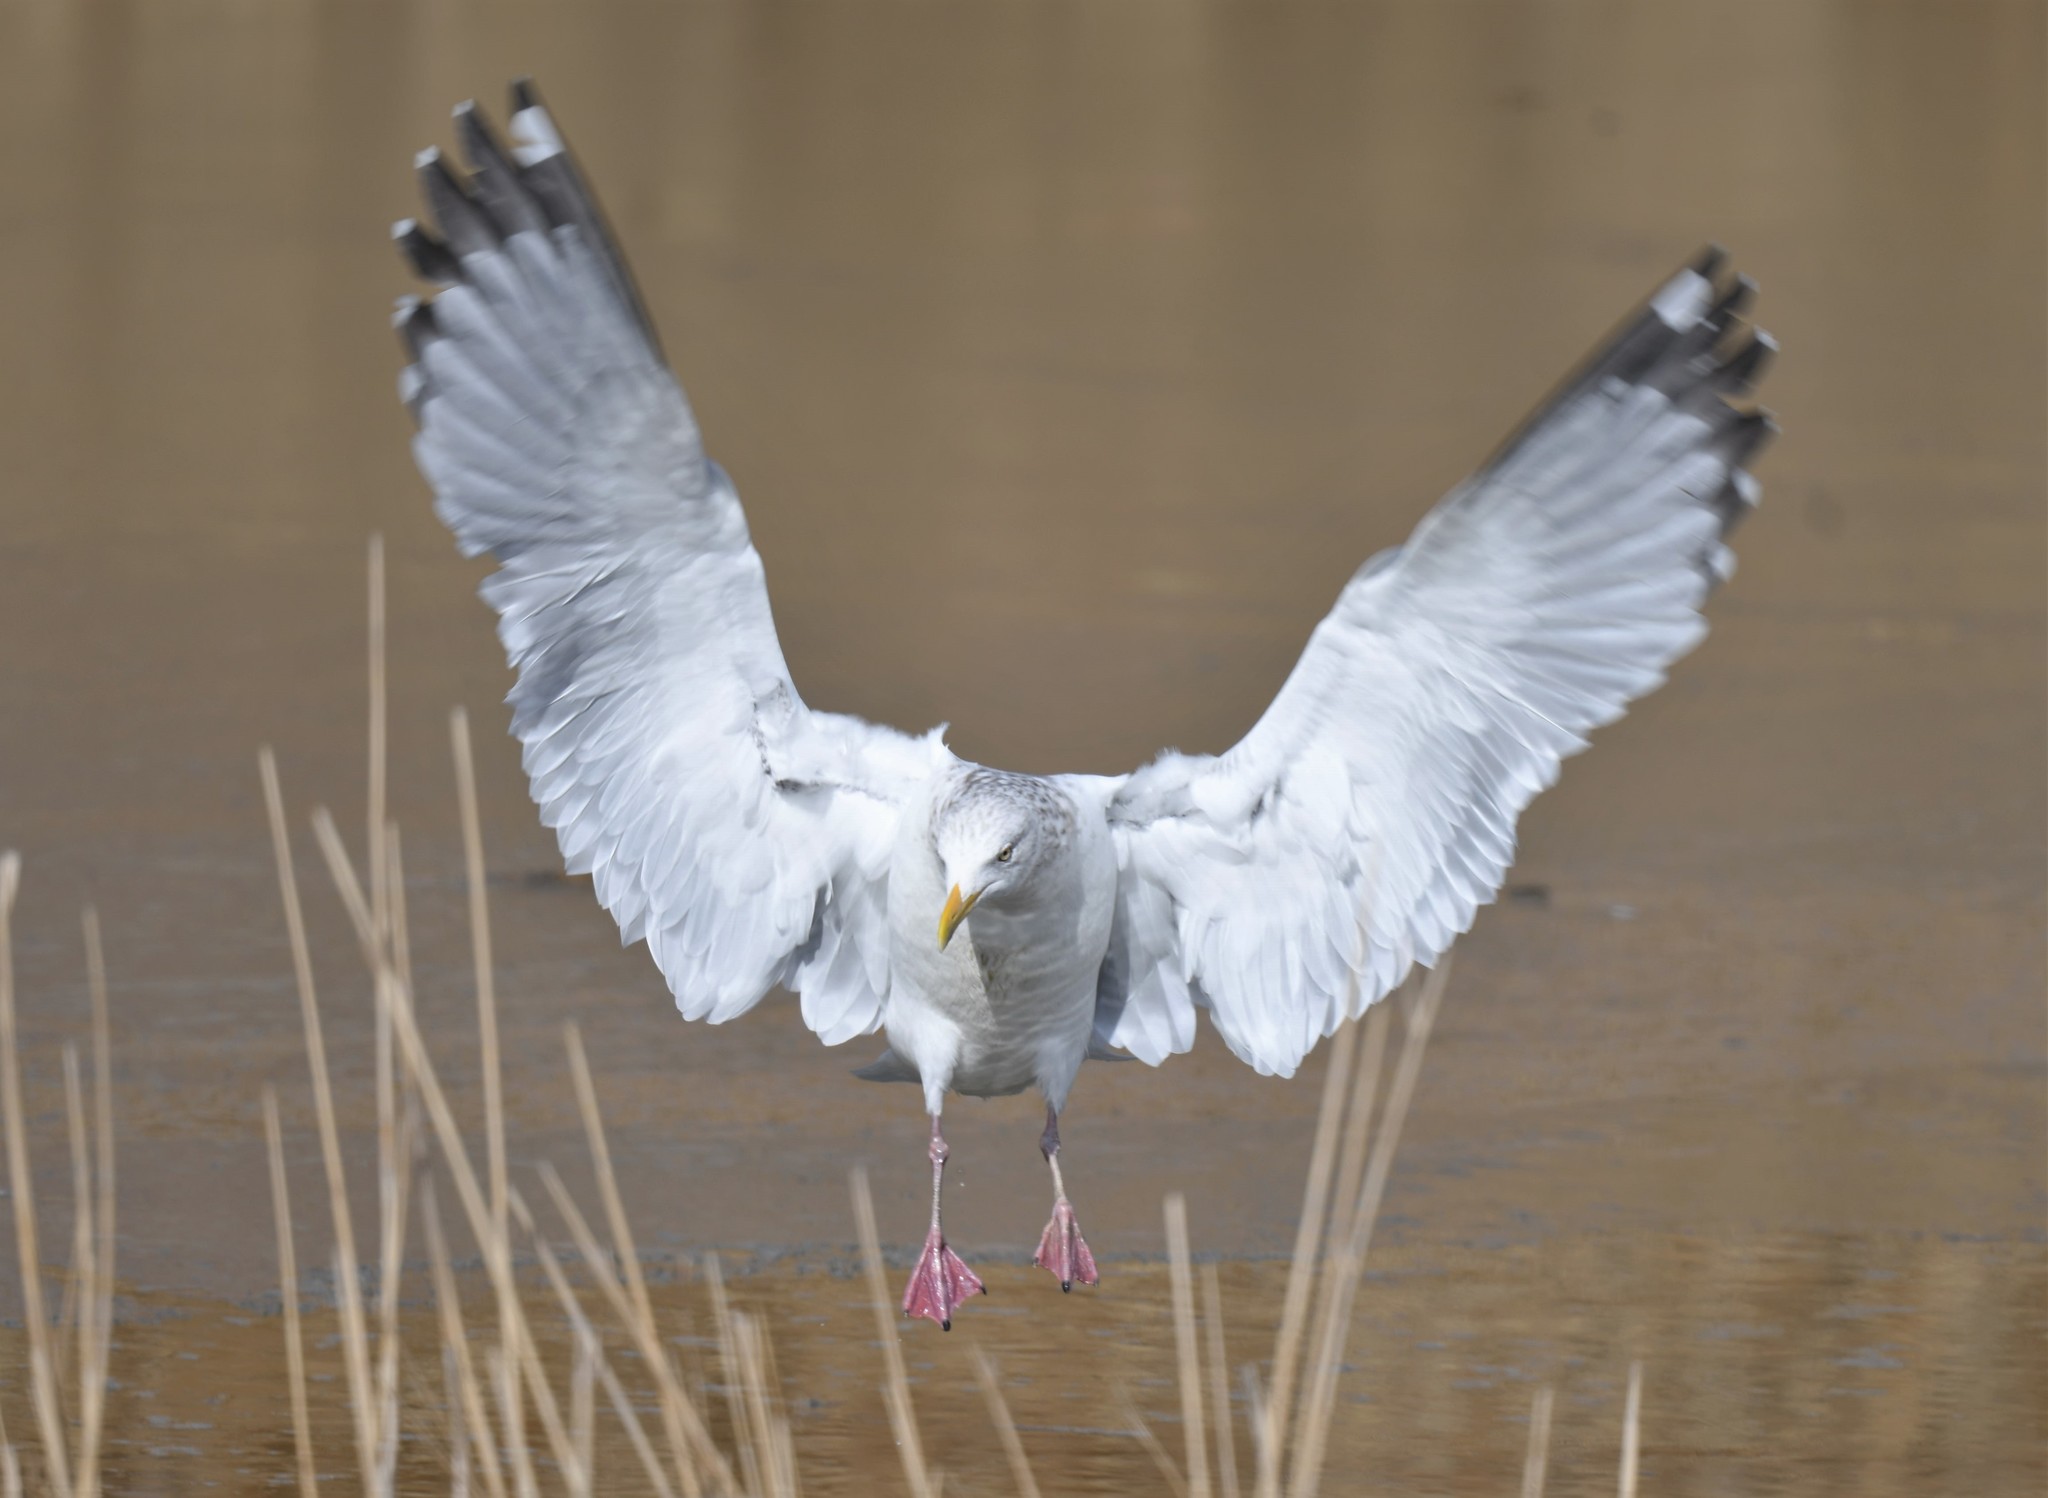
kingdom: Animalia
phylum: Chordata
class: Aves
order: Charadriiformes
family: Laridae
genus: Larus
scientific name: Larus argentatus
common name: Herring gull
